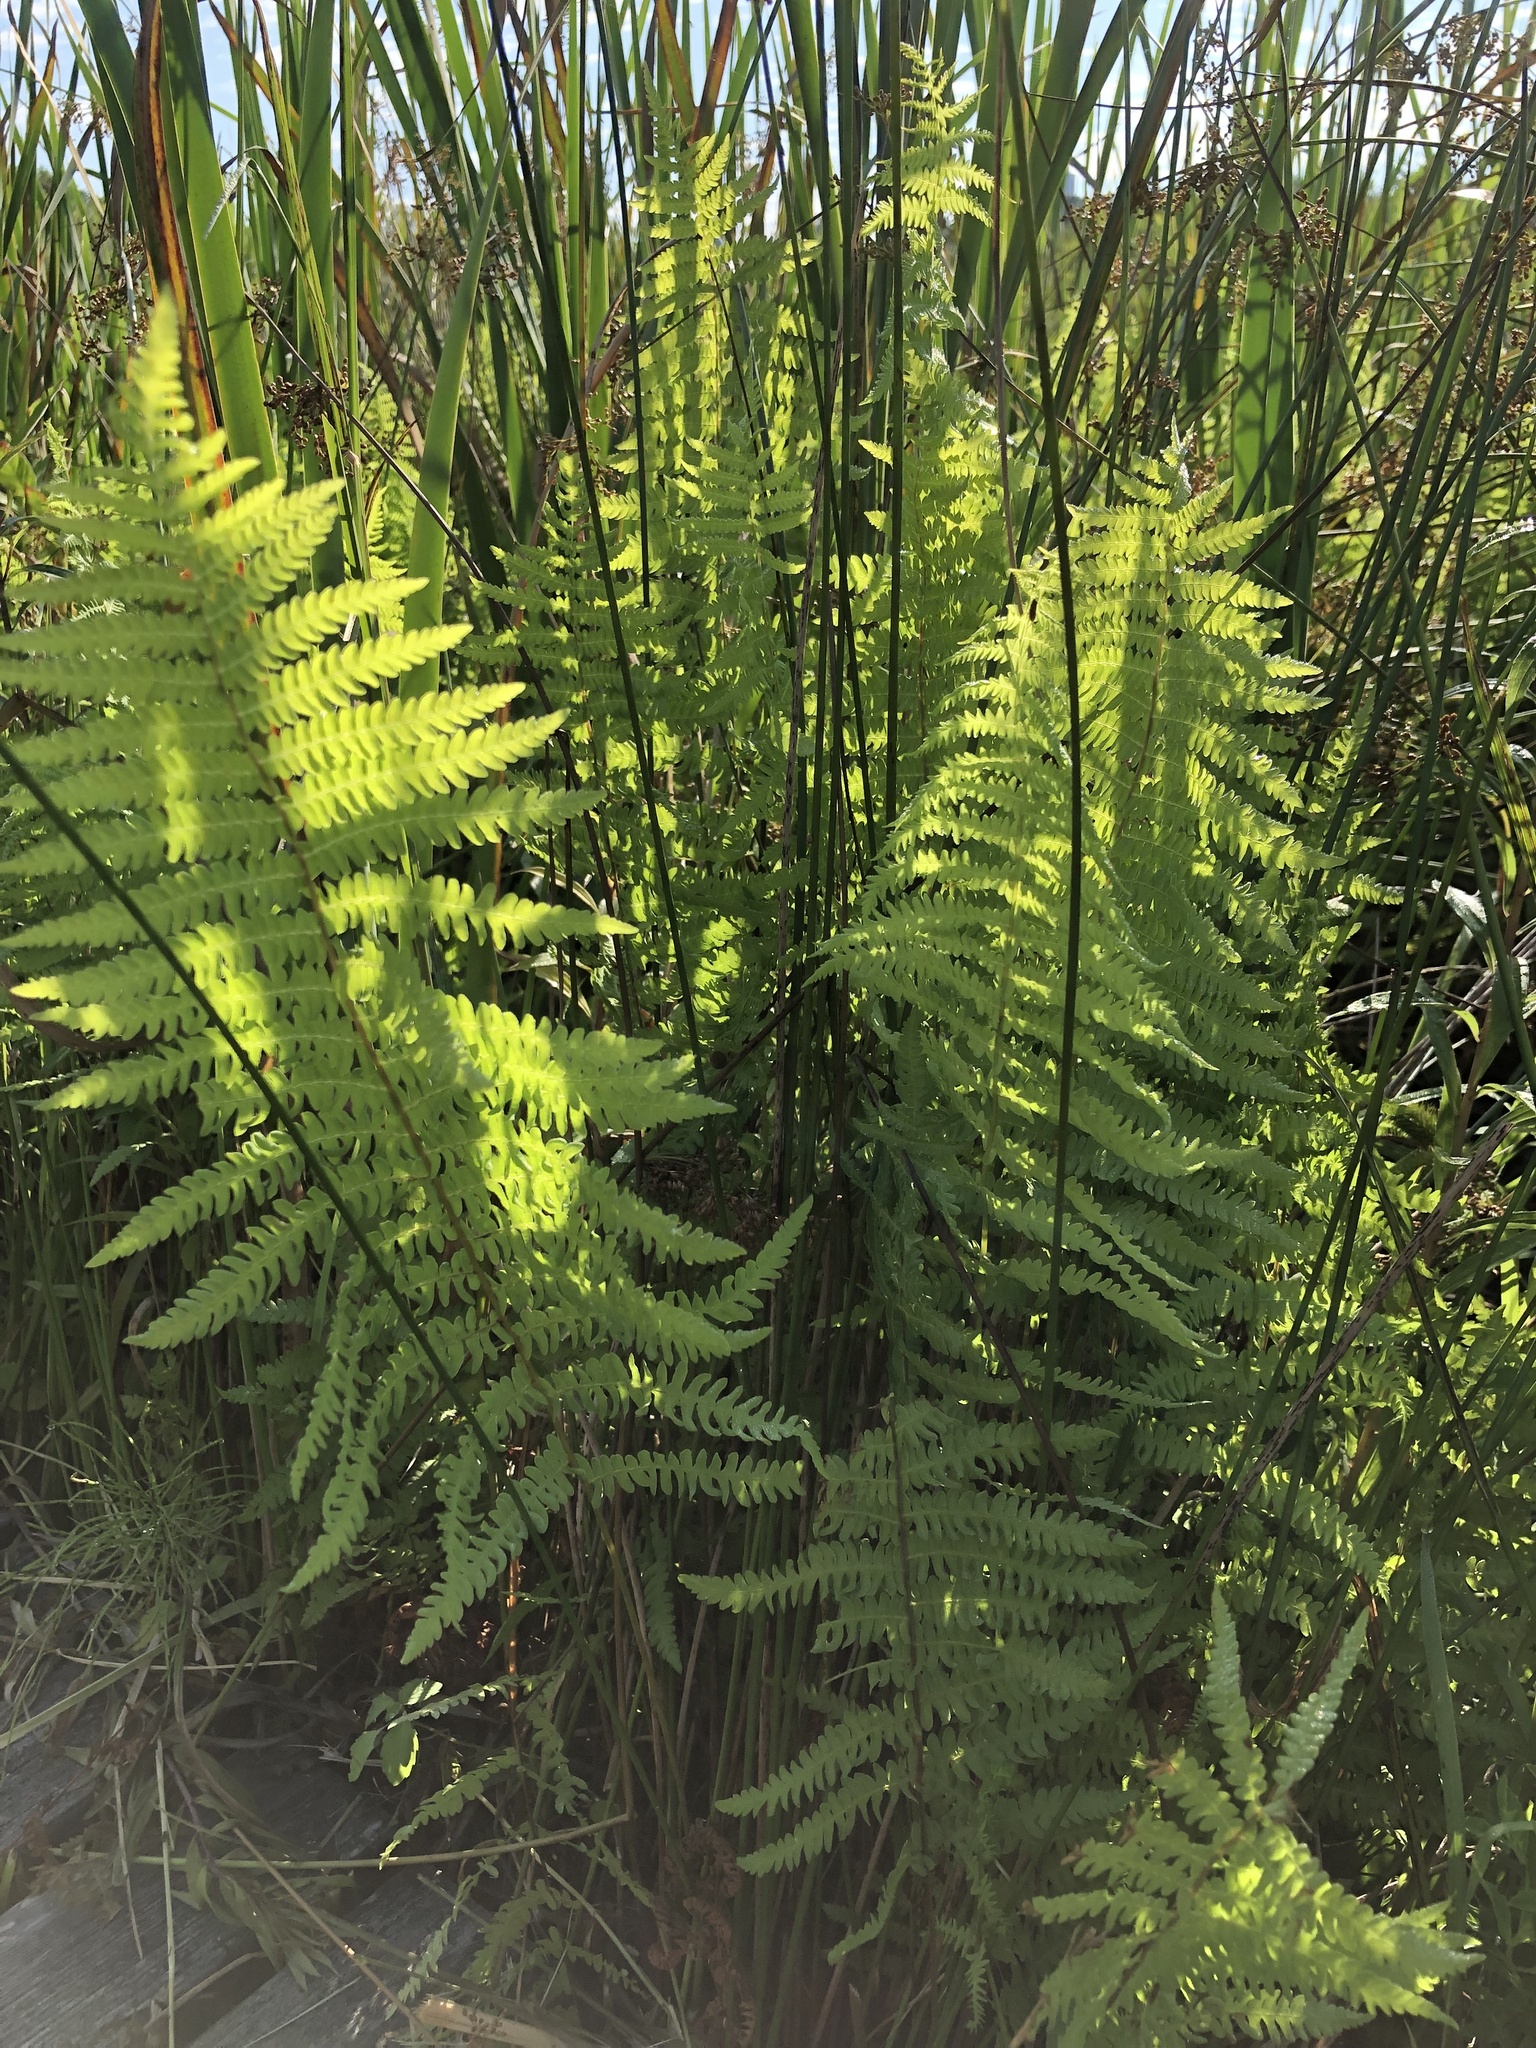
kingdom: Plantae
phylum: Tracheophyta
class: Polypodiopsida
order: Polypodiales
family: Thelypteridaceae
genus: Thelypteris
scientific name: Thelypteris palustris
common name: Marsh fern
